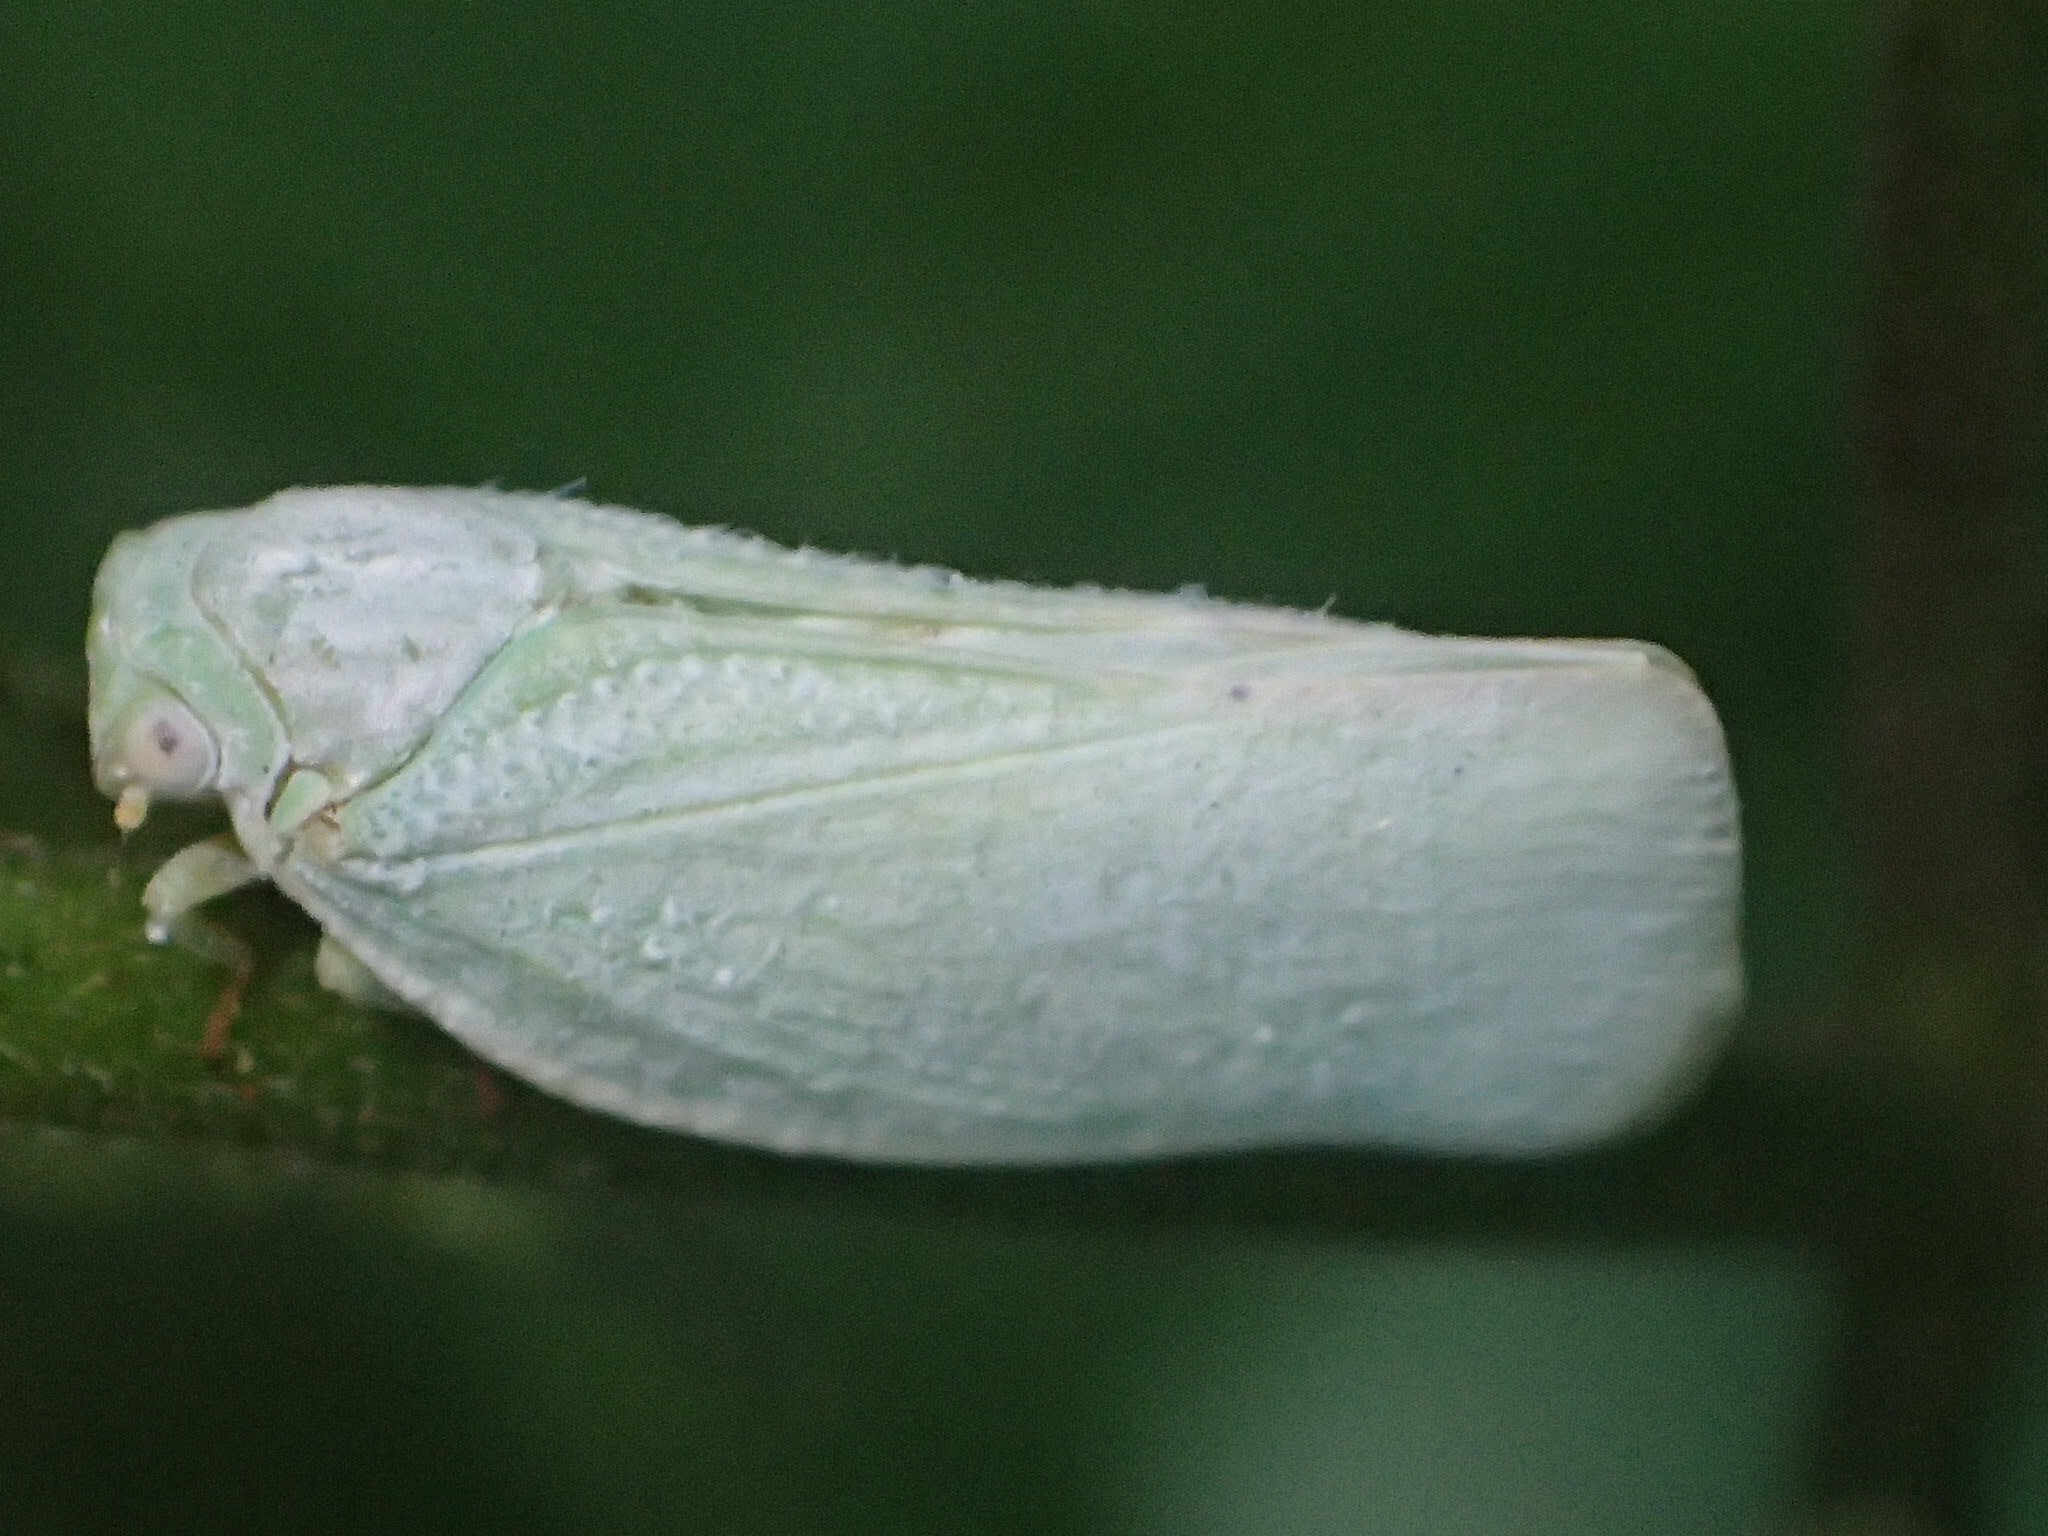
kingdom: Animalia
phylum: Arthropoda
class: Insecta
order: Hemiptera
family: Flatidae
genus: Flatormenis
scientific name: Flatormenis proxima
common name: Northern flatid planthopper
